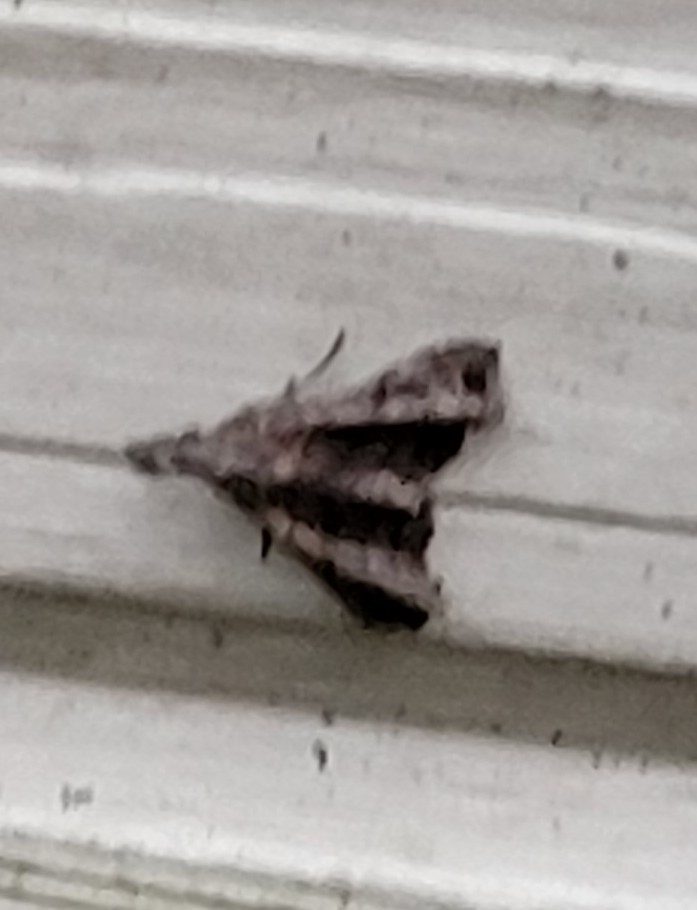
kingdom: Animalia
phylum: Arthropoda
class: Insecta
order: Lepidoptera
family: Erebidae
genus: Palthis
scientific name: Palthis asopialis
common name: Faint-spotted palthis moth
